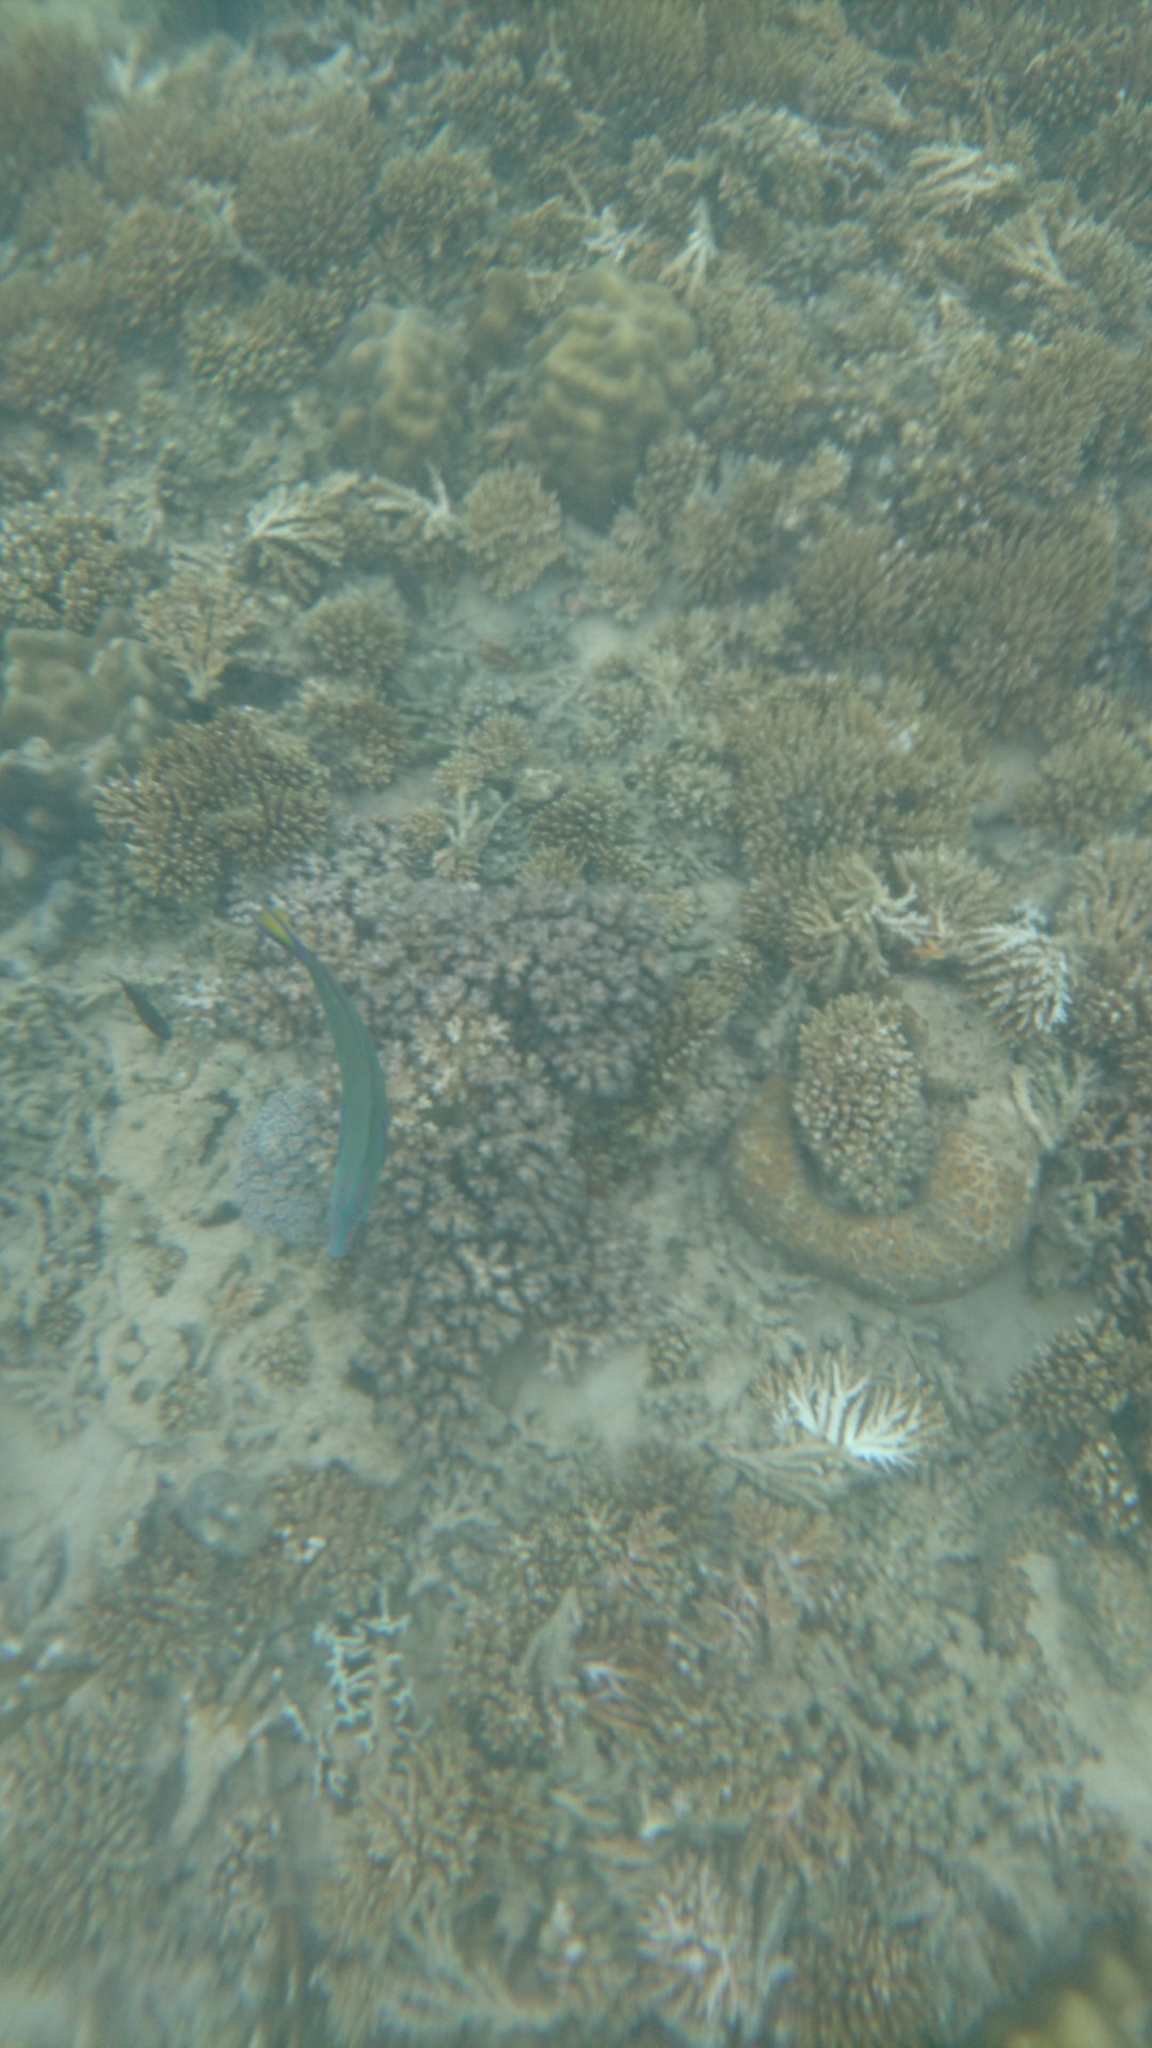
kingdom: Animalia
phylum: Chordata
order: Perciformes
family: Labridae
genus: Thalassoma
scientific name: Thalassoma lunare
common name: Blue wrasse
